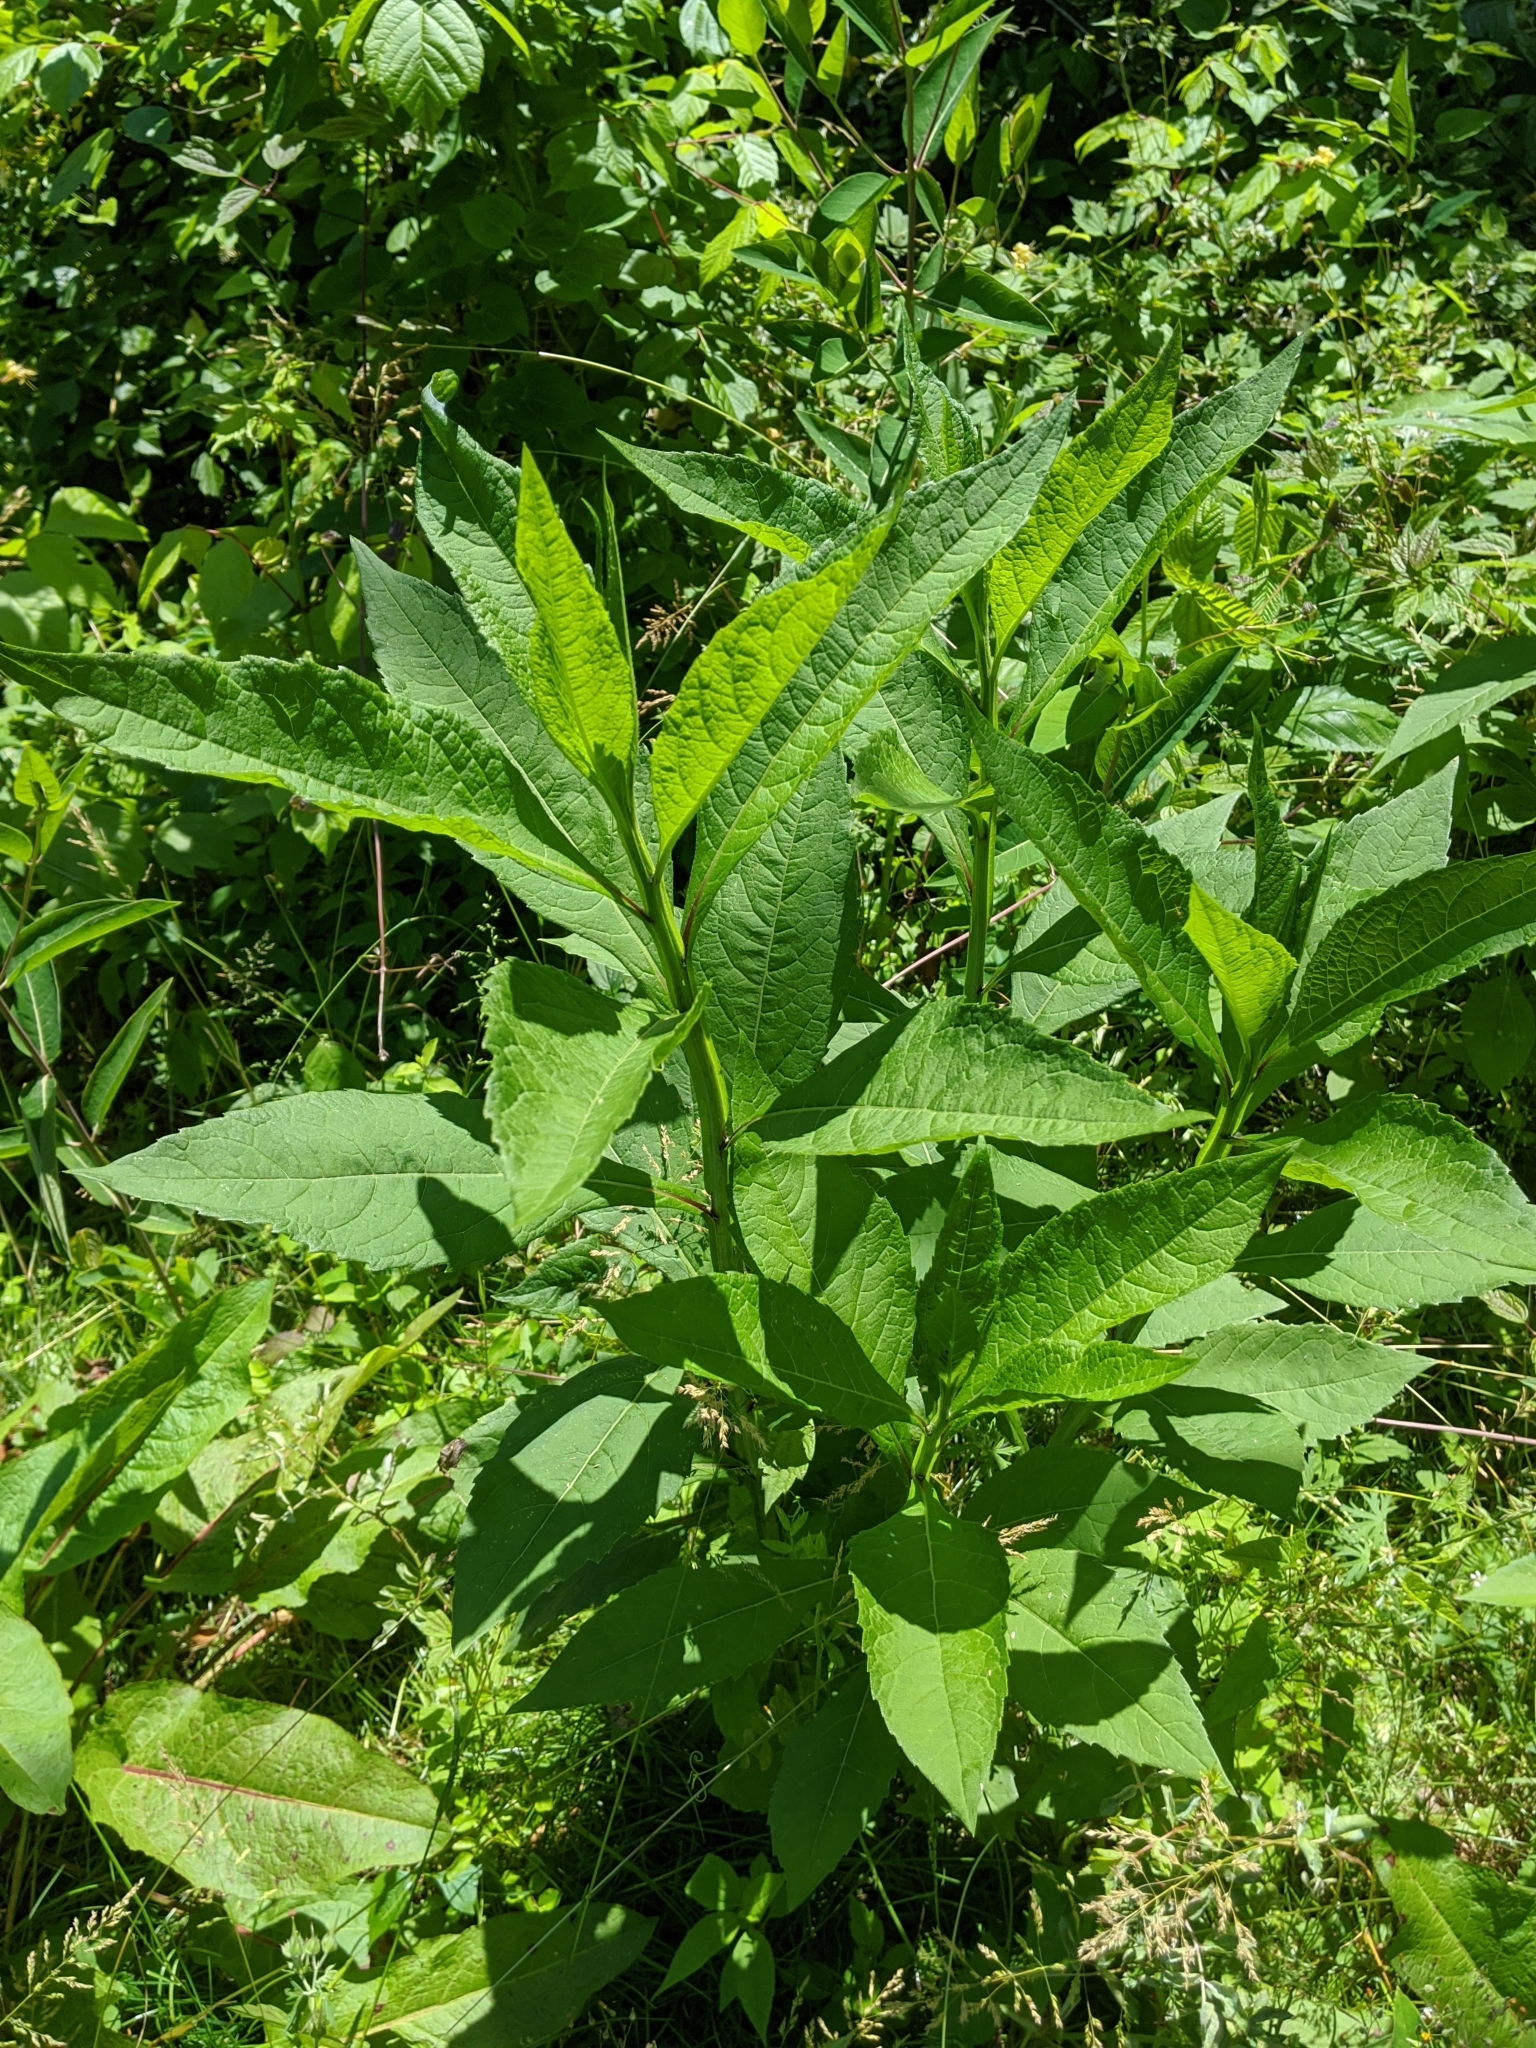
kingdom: Plantae
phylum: Tracheophyta
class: Magnoliopsida
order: Asterales
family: Asteraceae
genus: Verbesina
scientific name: Verbesina alternifolia
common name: Wingstem
